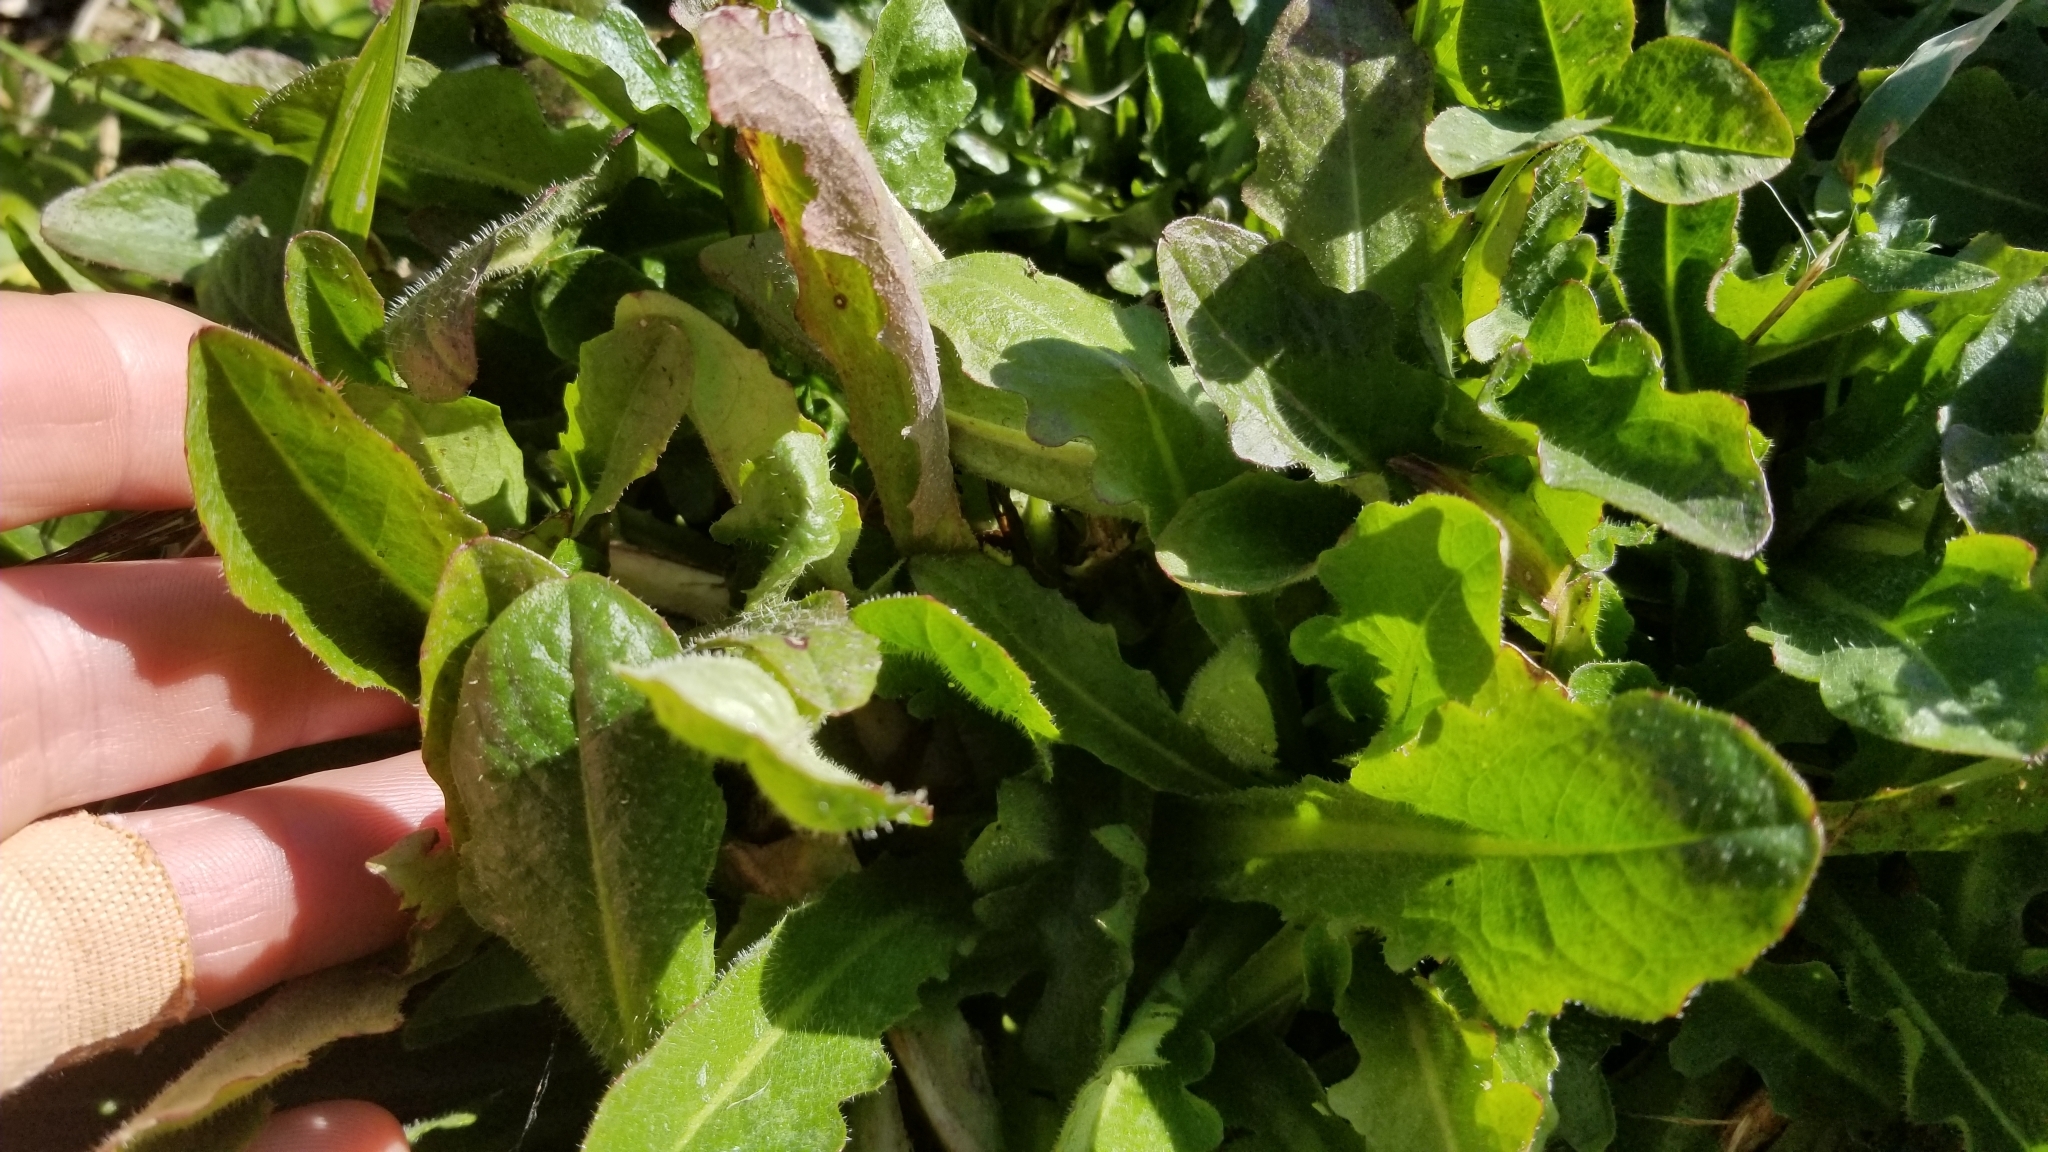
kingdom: Plantae
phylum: Tracheophyta
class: Magnoliopsida
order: Asterales
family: Asteraceae
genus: Hypochaeris
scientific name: Hypochaeris radicata
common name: Flatweed
